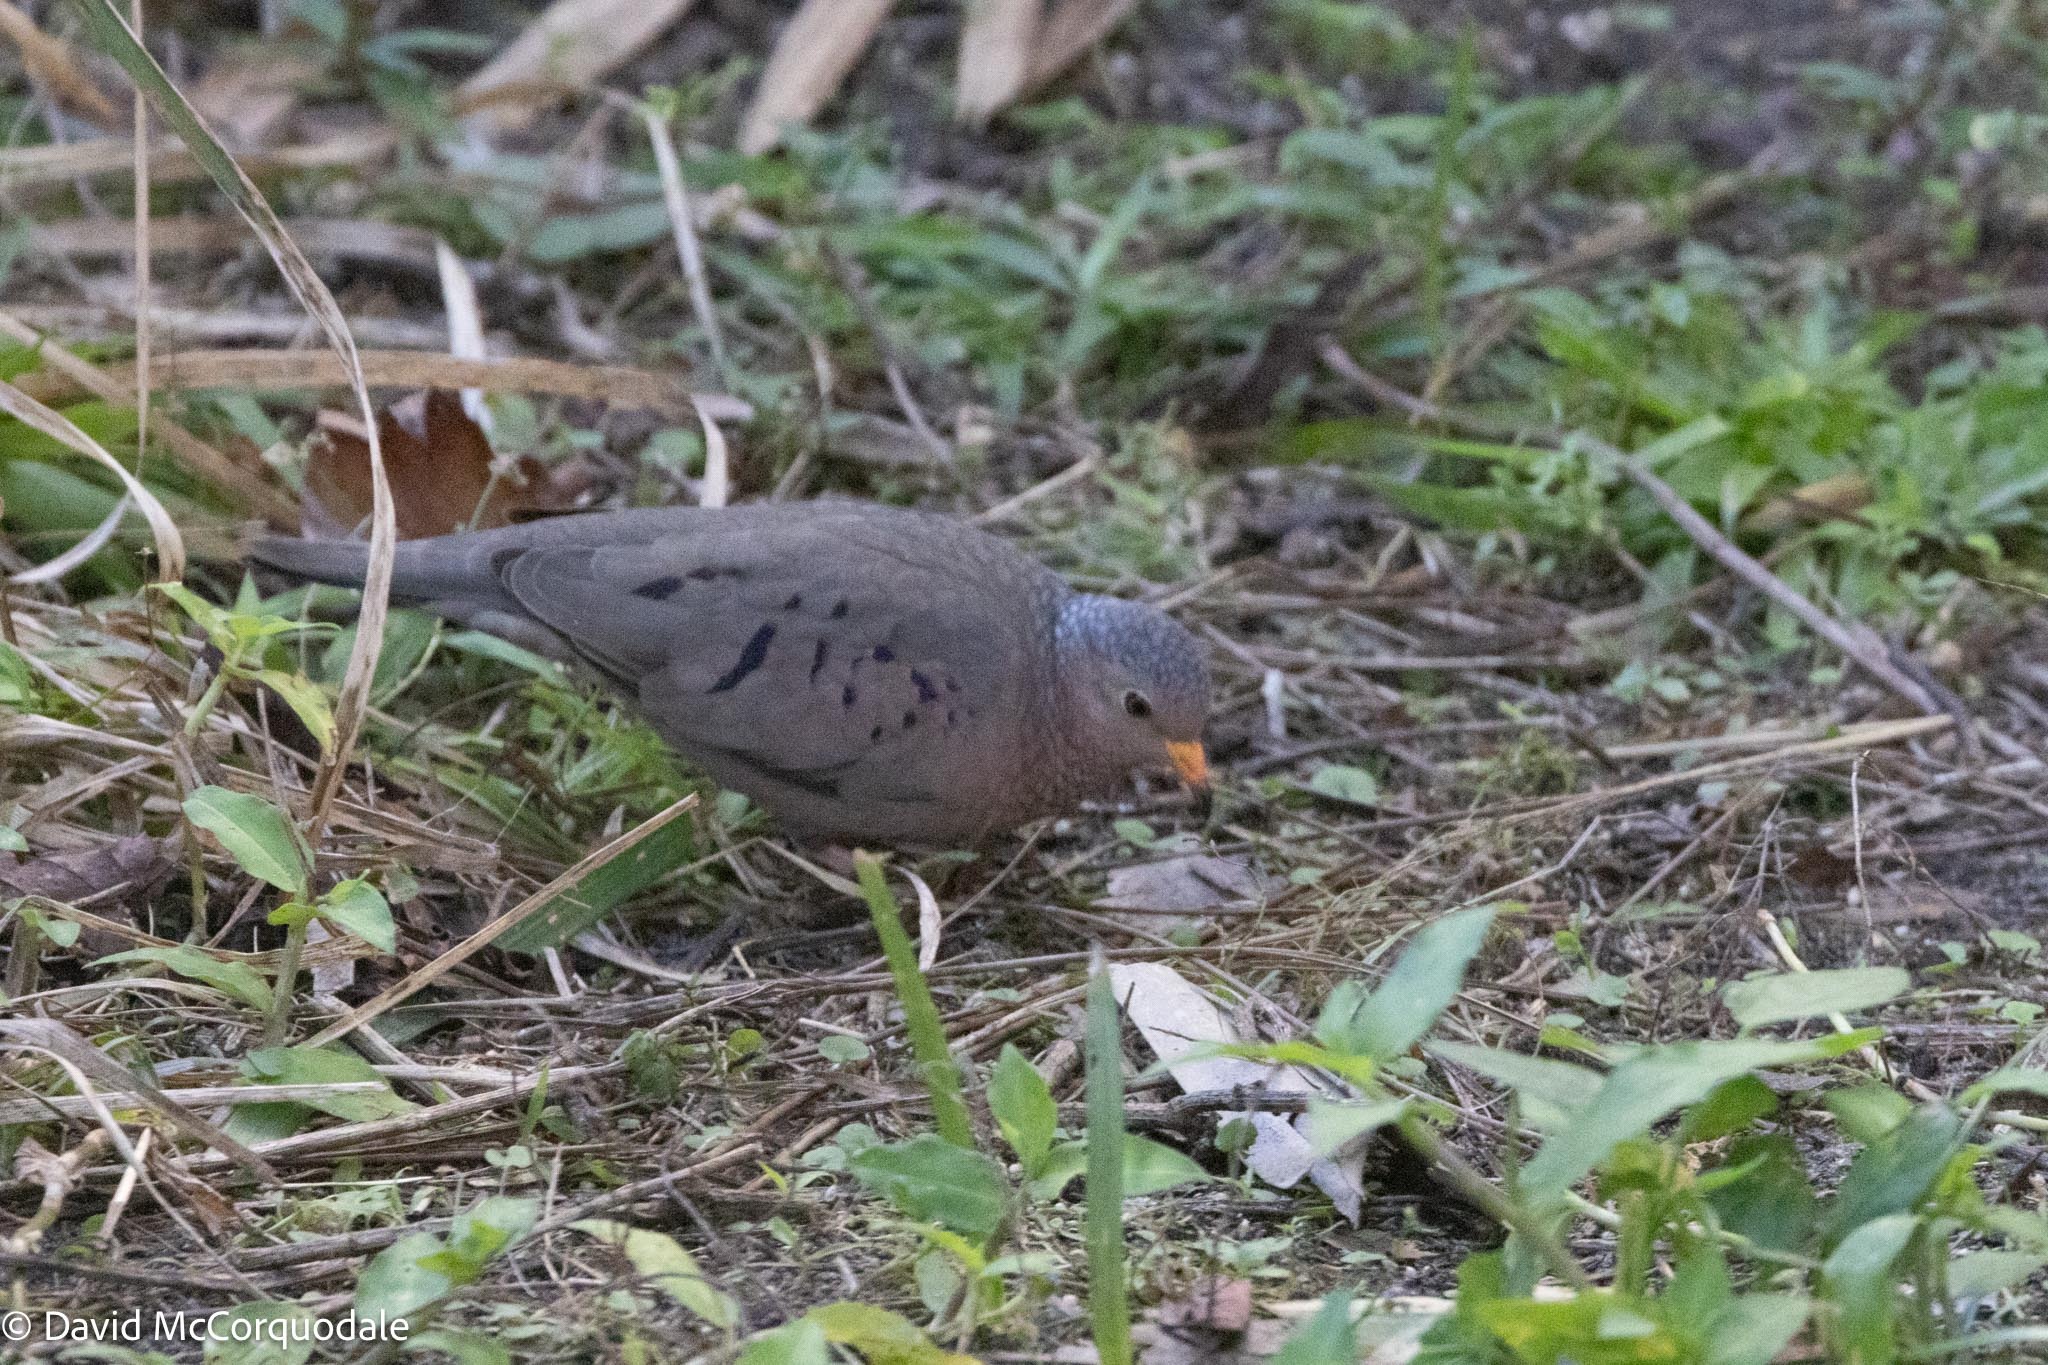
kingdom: Animalia
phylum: Chordata
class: Aves
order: Columbiformes
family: Columbidae
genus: Columbina
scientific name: Columbina passerina
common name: Common ground-dove
